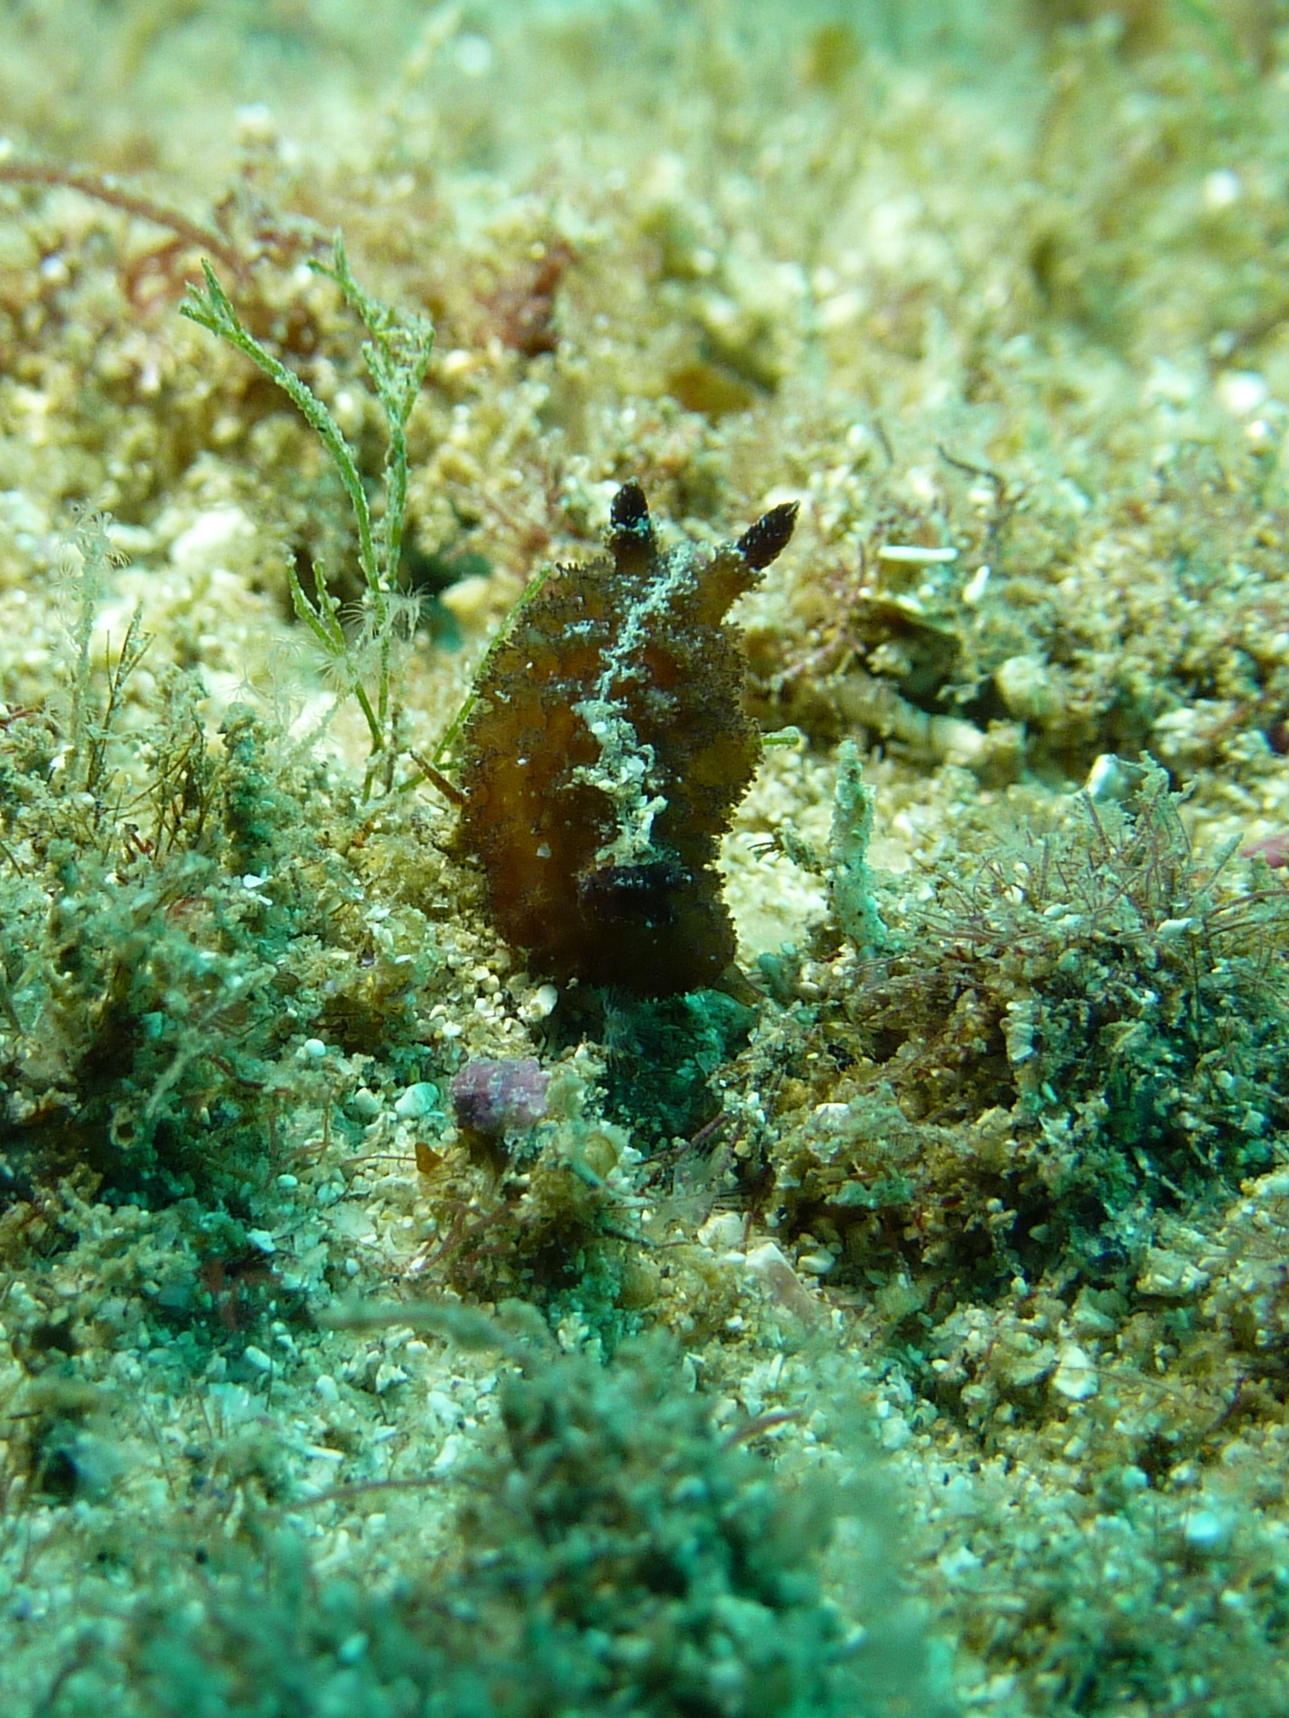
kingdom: Animalia
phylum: Mollusca
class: Gastropoda
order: Nudibranchia
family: Discodorididae
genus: Atagema
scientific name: Atagema intecta
